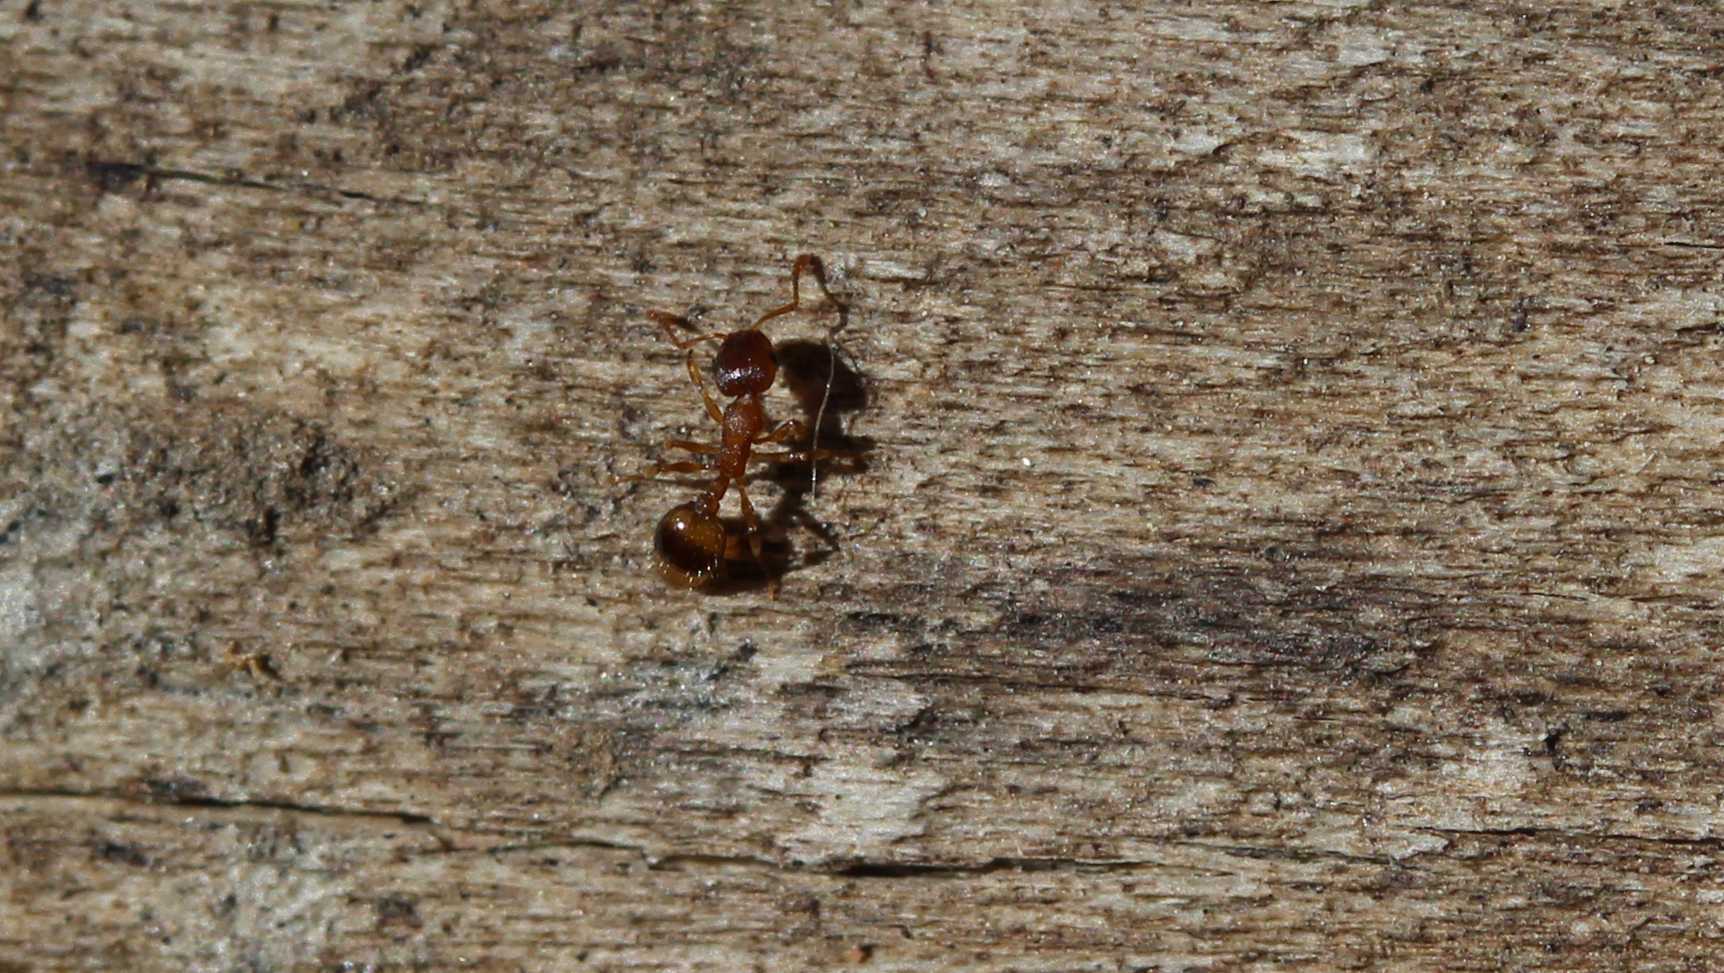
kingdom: Animalia
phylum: Arthropoda
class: Insecta
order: Hymenoptera
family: Formicidae
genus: Temnothorax
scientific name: Temnothorax
